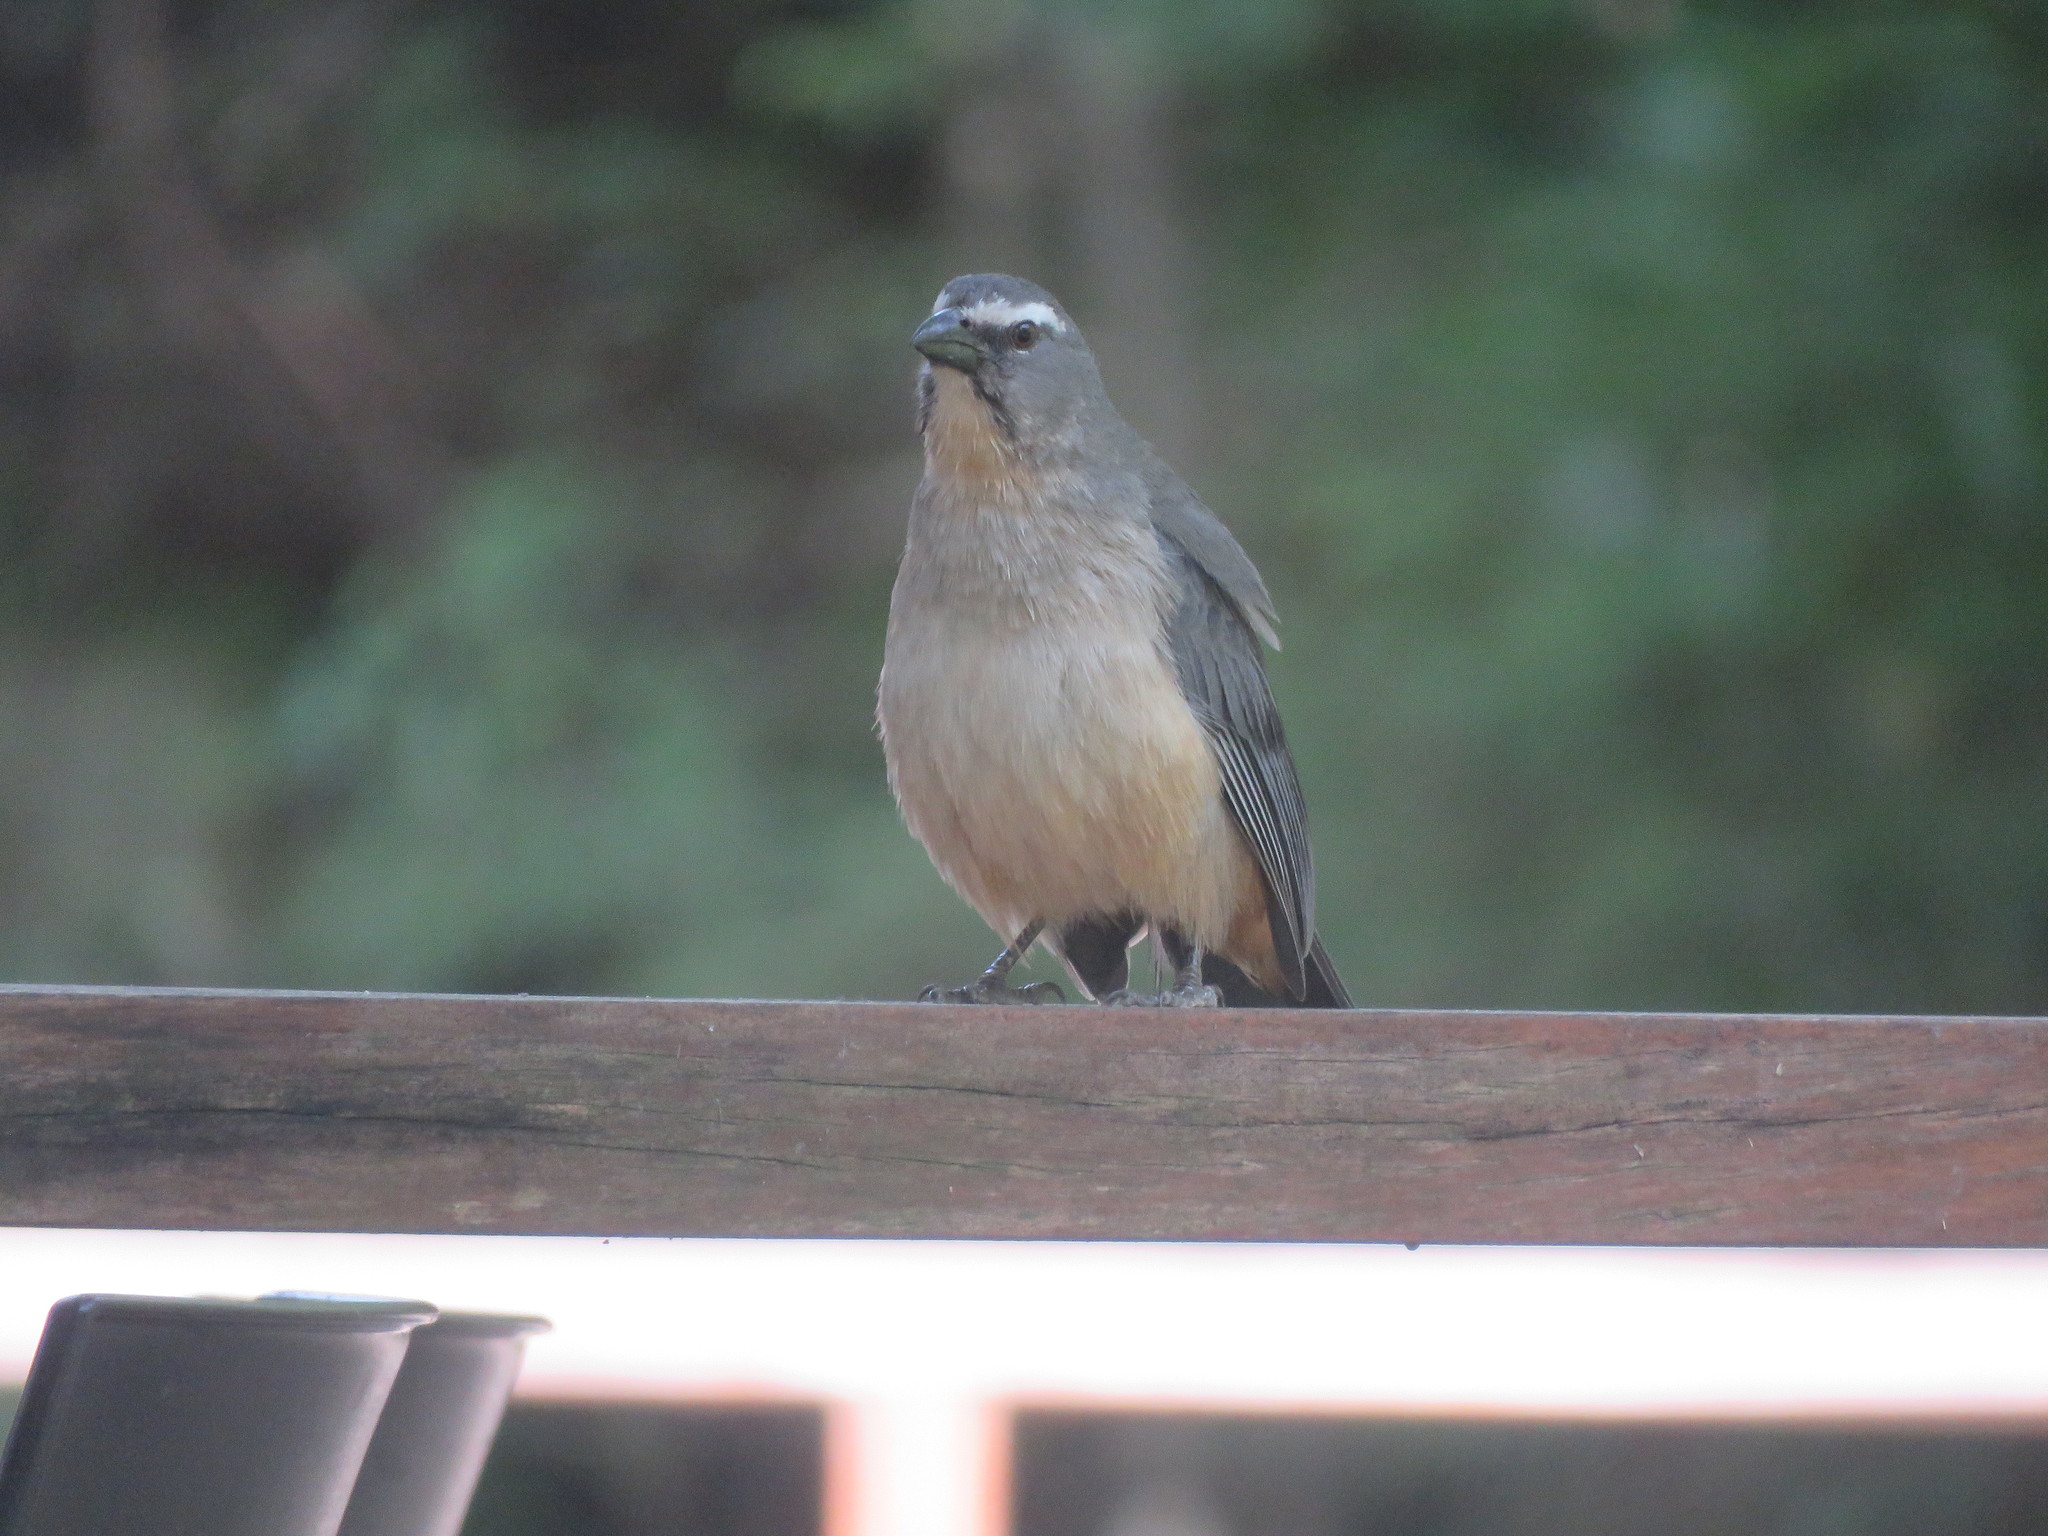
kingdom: Animalia
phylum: Chordata
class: Aves
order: Passeriformes
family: Thraupidae
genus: Saltator
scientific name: Saltator coerulescens
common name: Grayish saltator
